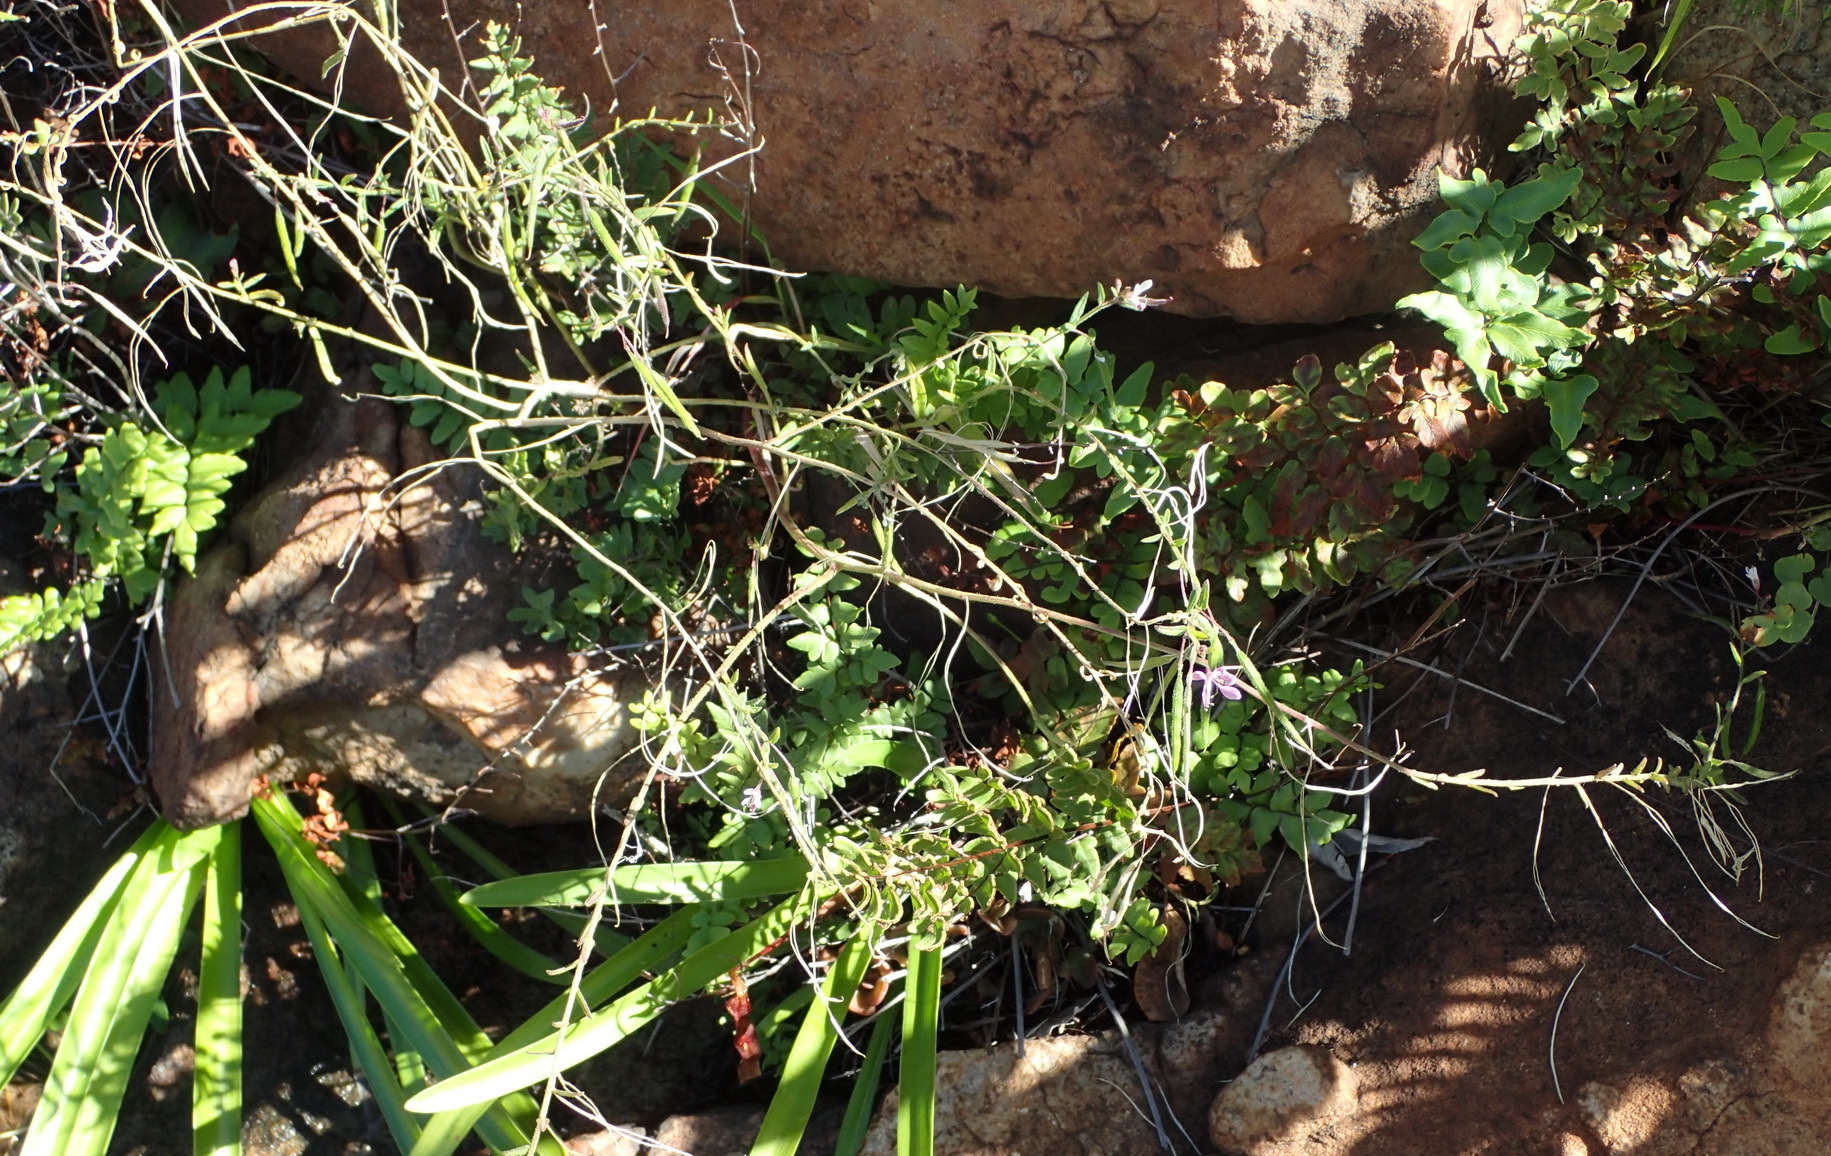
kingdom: Plantae
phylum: Tracheophyta
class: Magnoliopsida
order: Brassicales
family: Cleomaceae
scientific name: Cleomaceae
